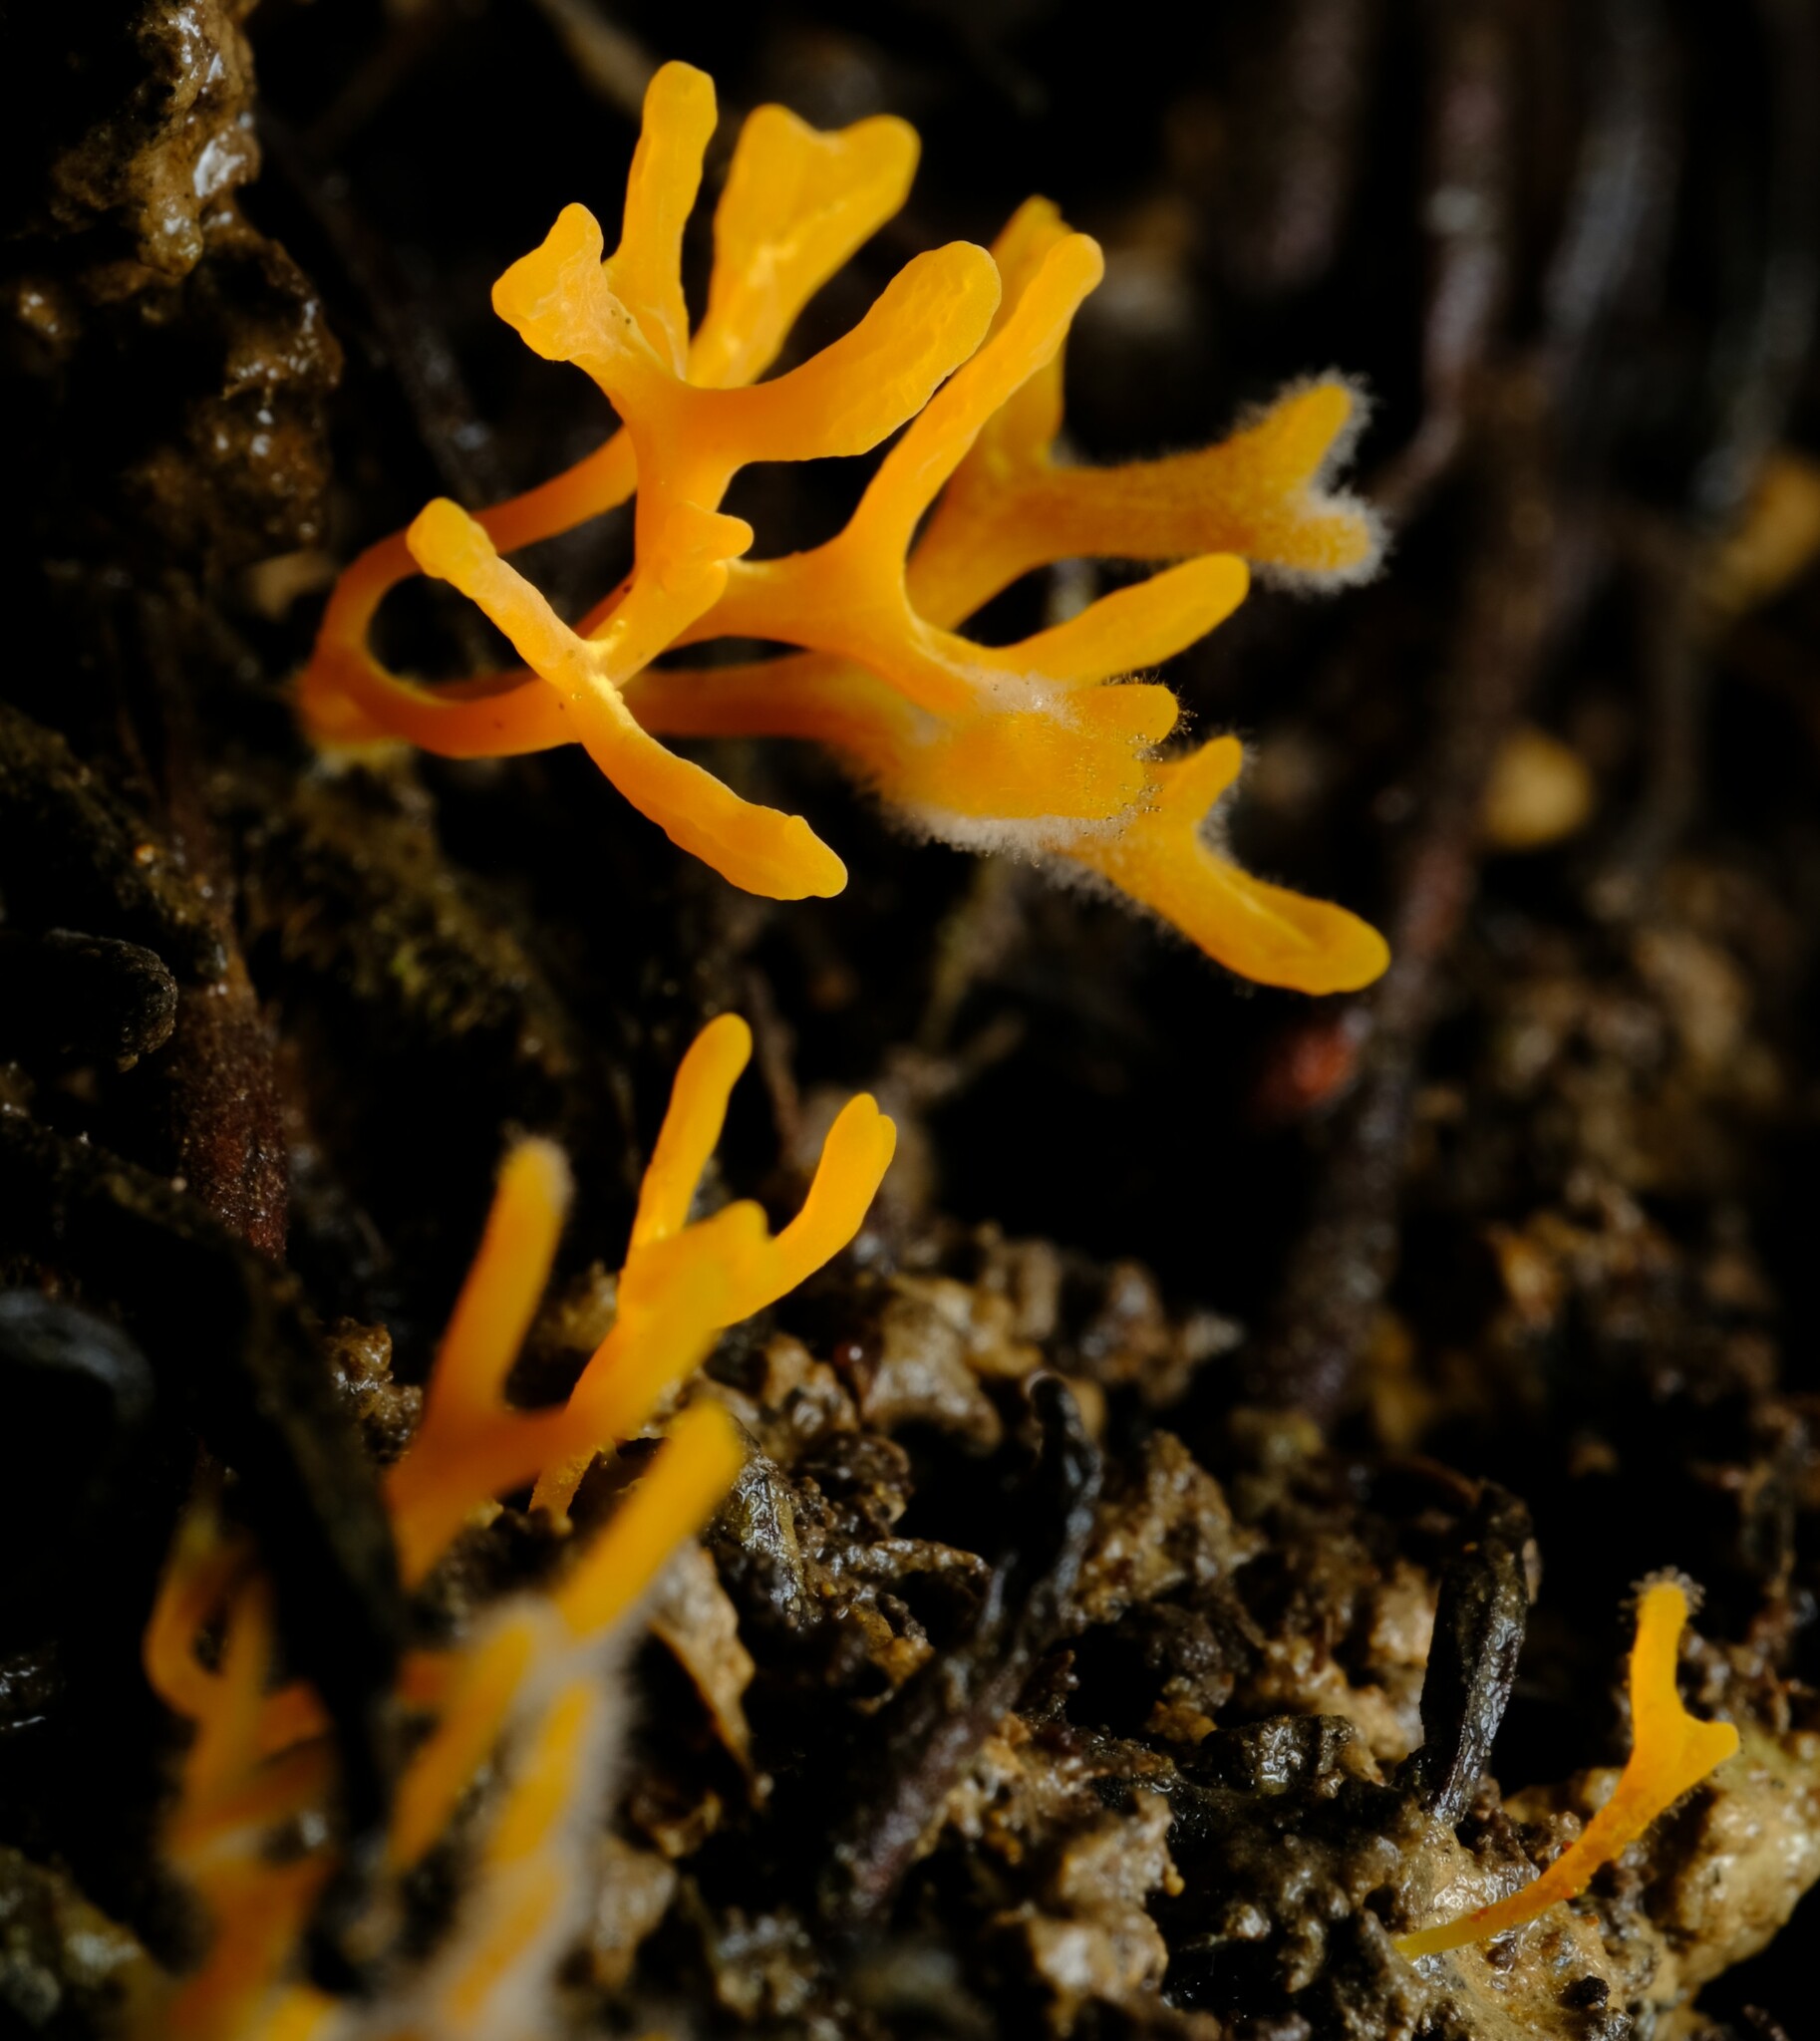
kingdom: Fungi
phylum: Basidiomycota
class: Agaricomycetes
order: Agaricales
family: Clavariaceae
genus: Ramariopsis
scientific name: Ramariopsis crocea
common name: Orange coral
